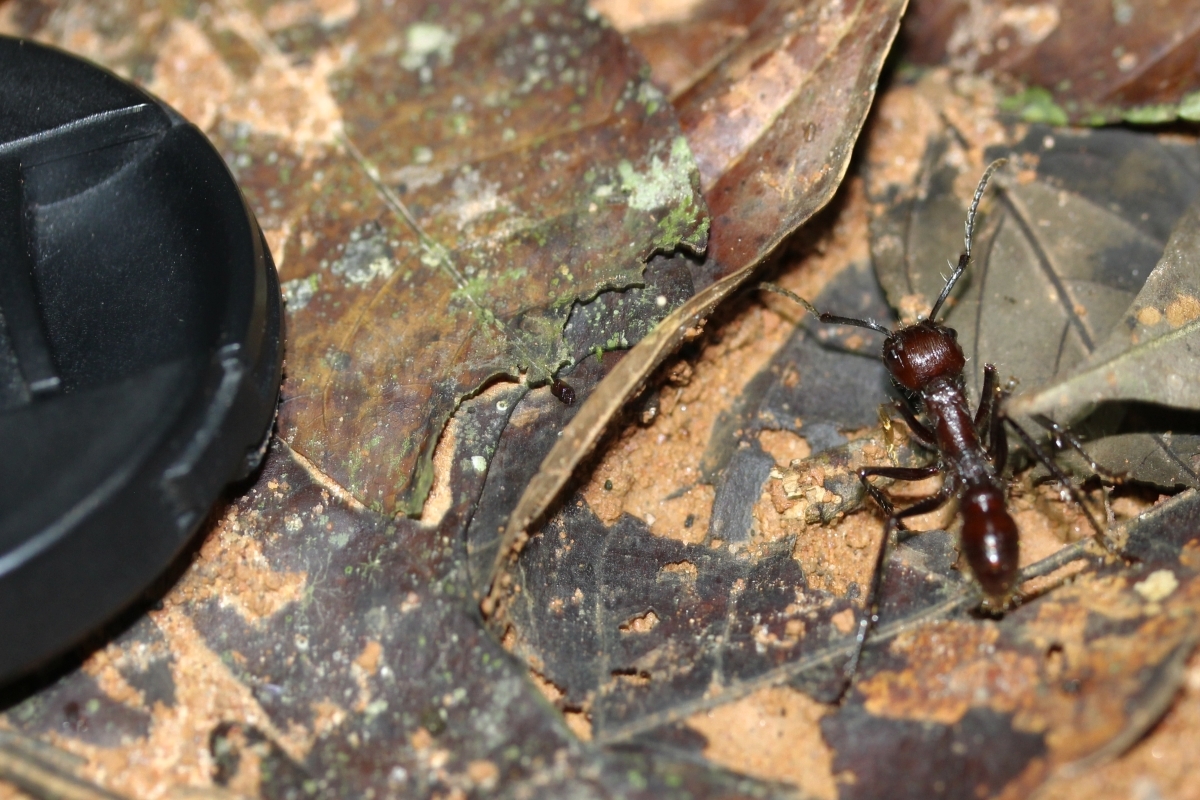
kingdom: Animalia
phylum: Arthropoda
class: Insecta
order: Hymenoptera
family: Formicidae
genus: Paraponera
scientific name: Paraponera clavata
